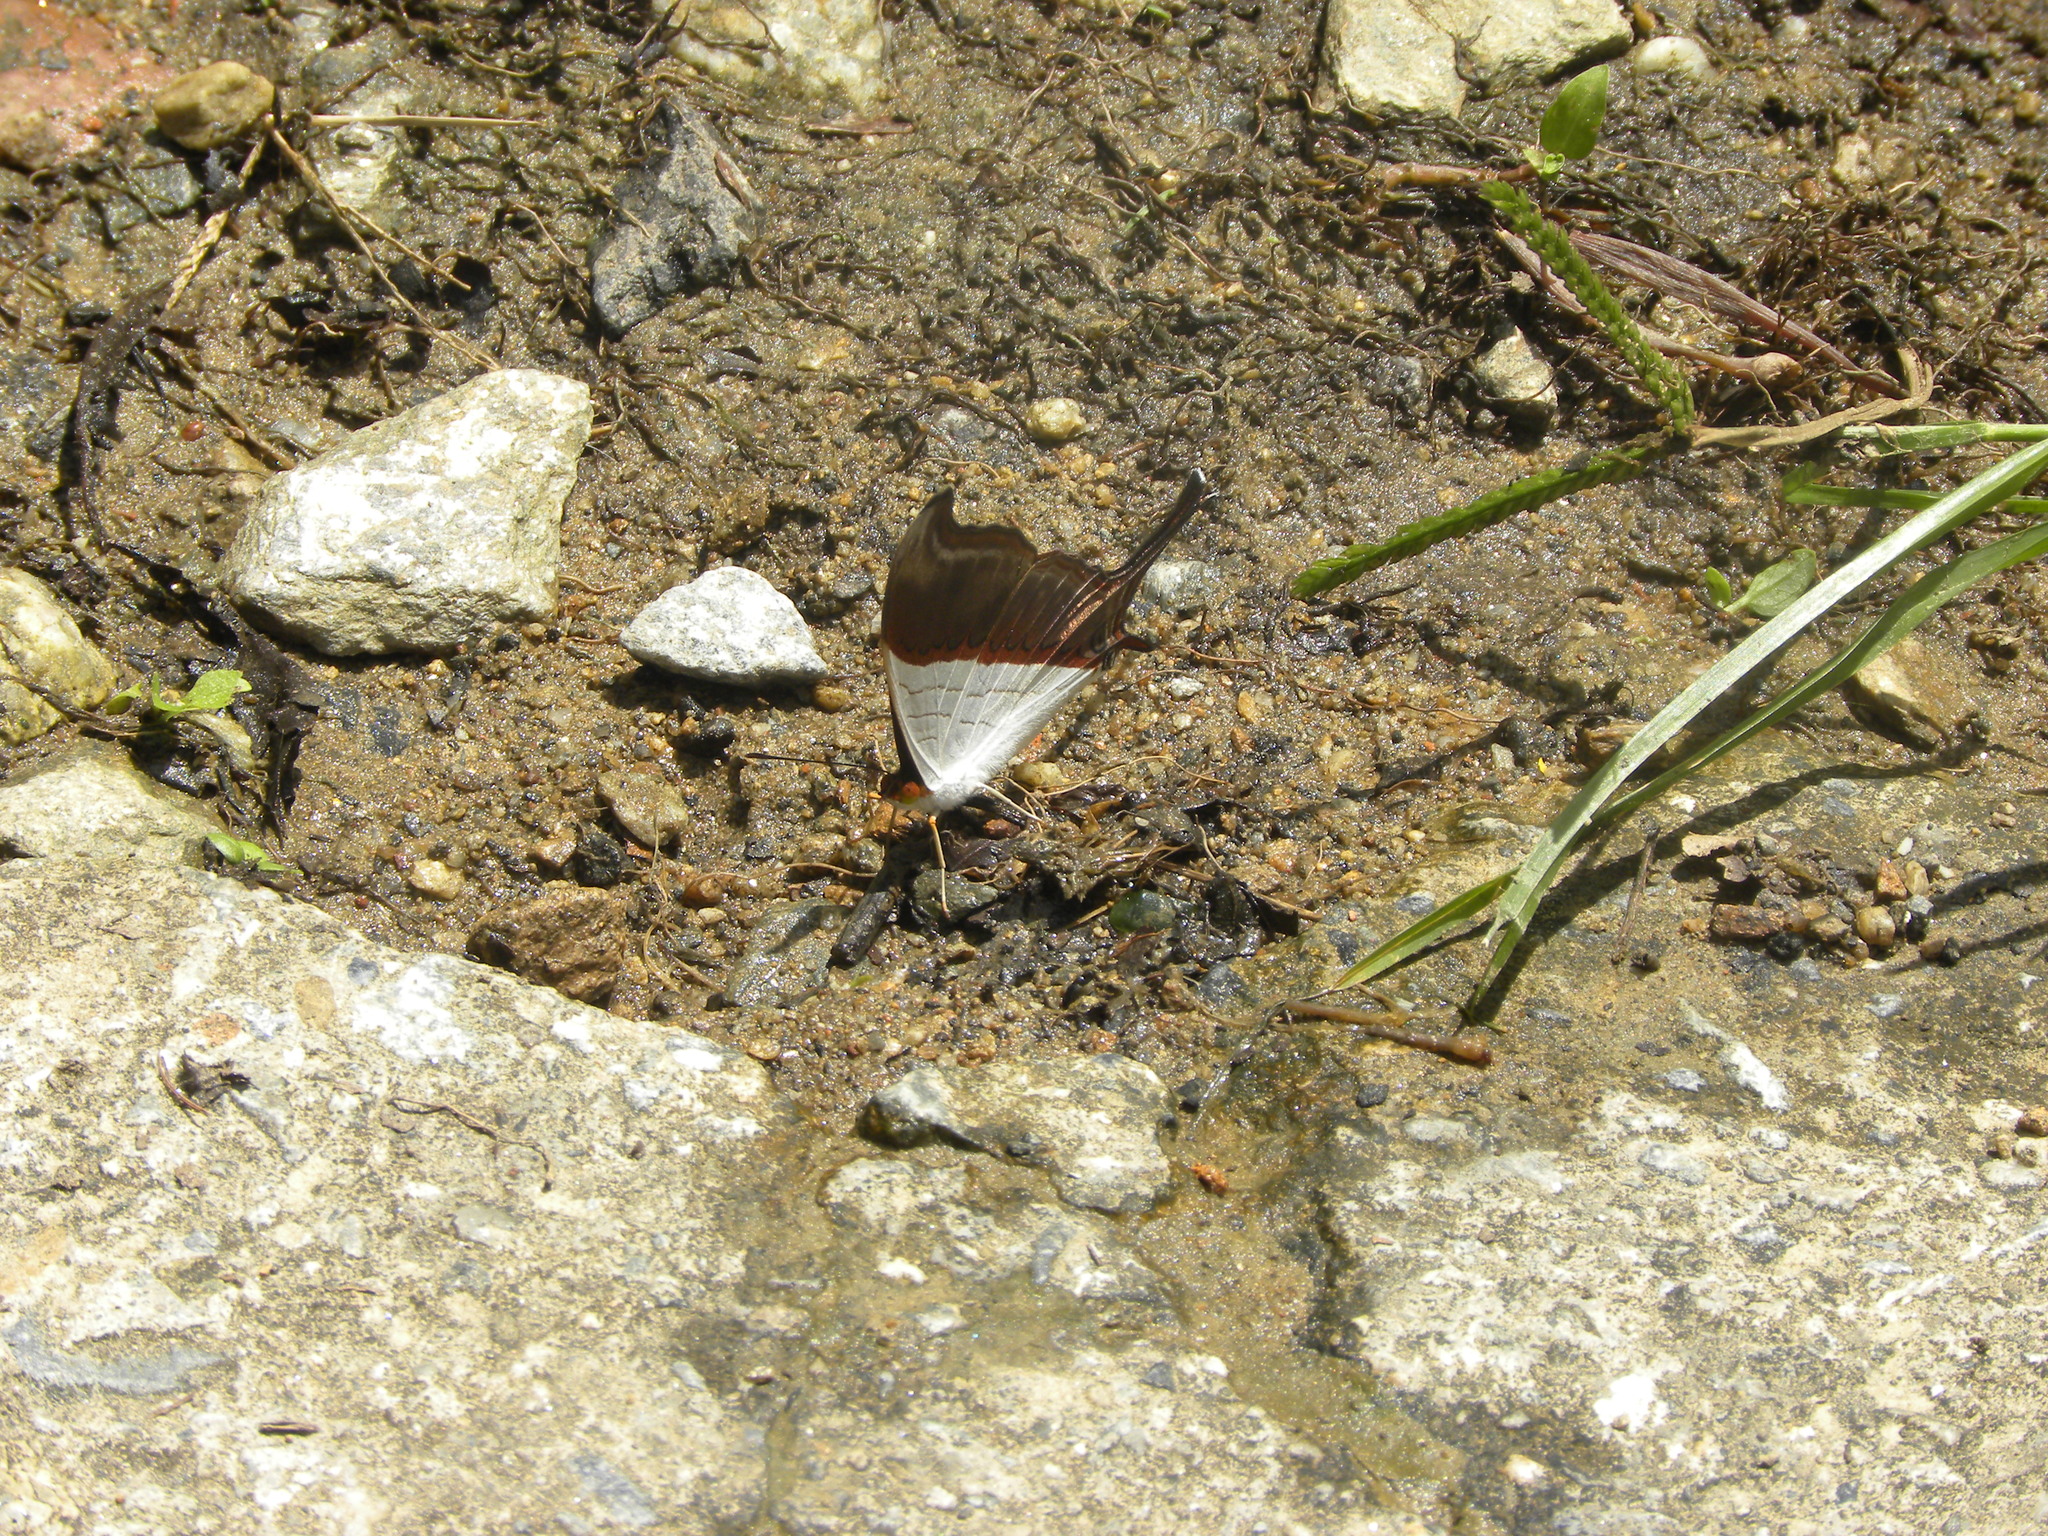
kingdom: Animalia
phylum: Arthropoda
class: Insecta
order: Lepidoptera
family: Nymphalidae
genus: Marpesia
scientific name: Marpesia zerynthia
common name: Waiter daggerwing
